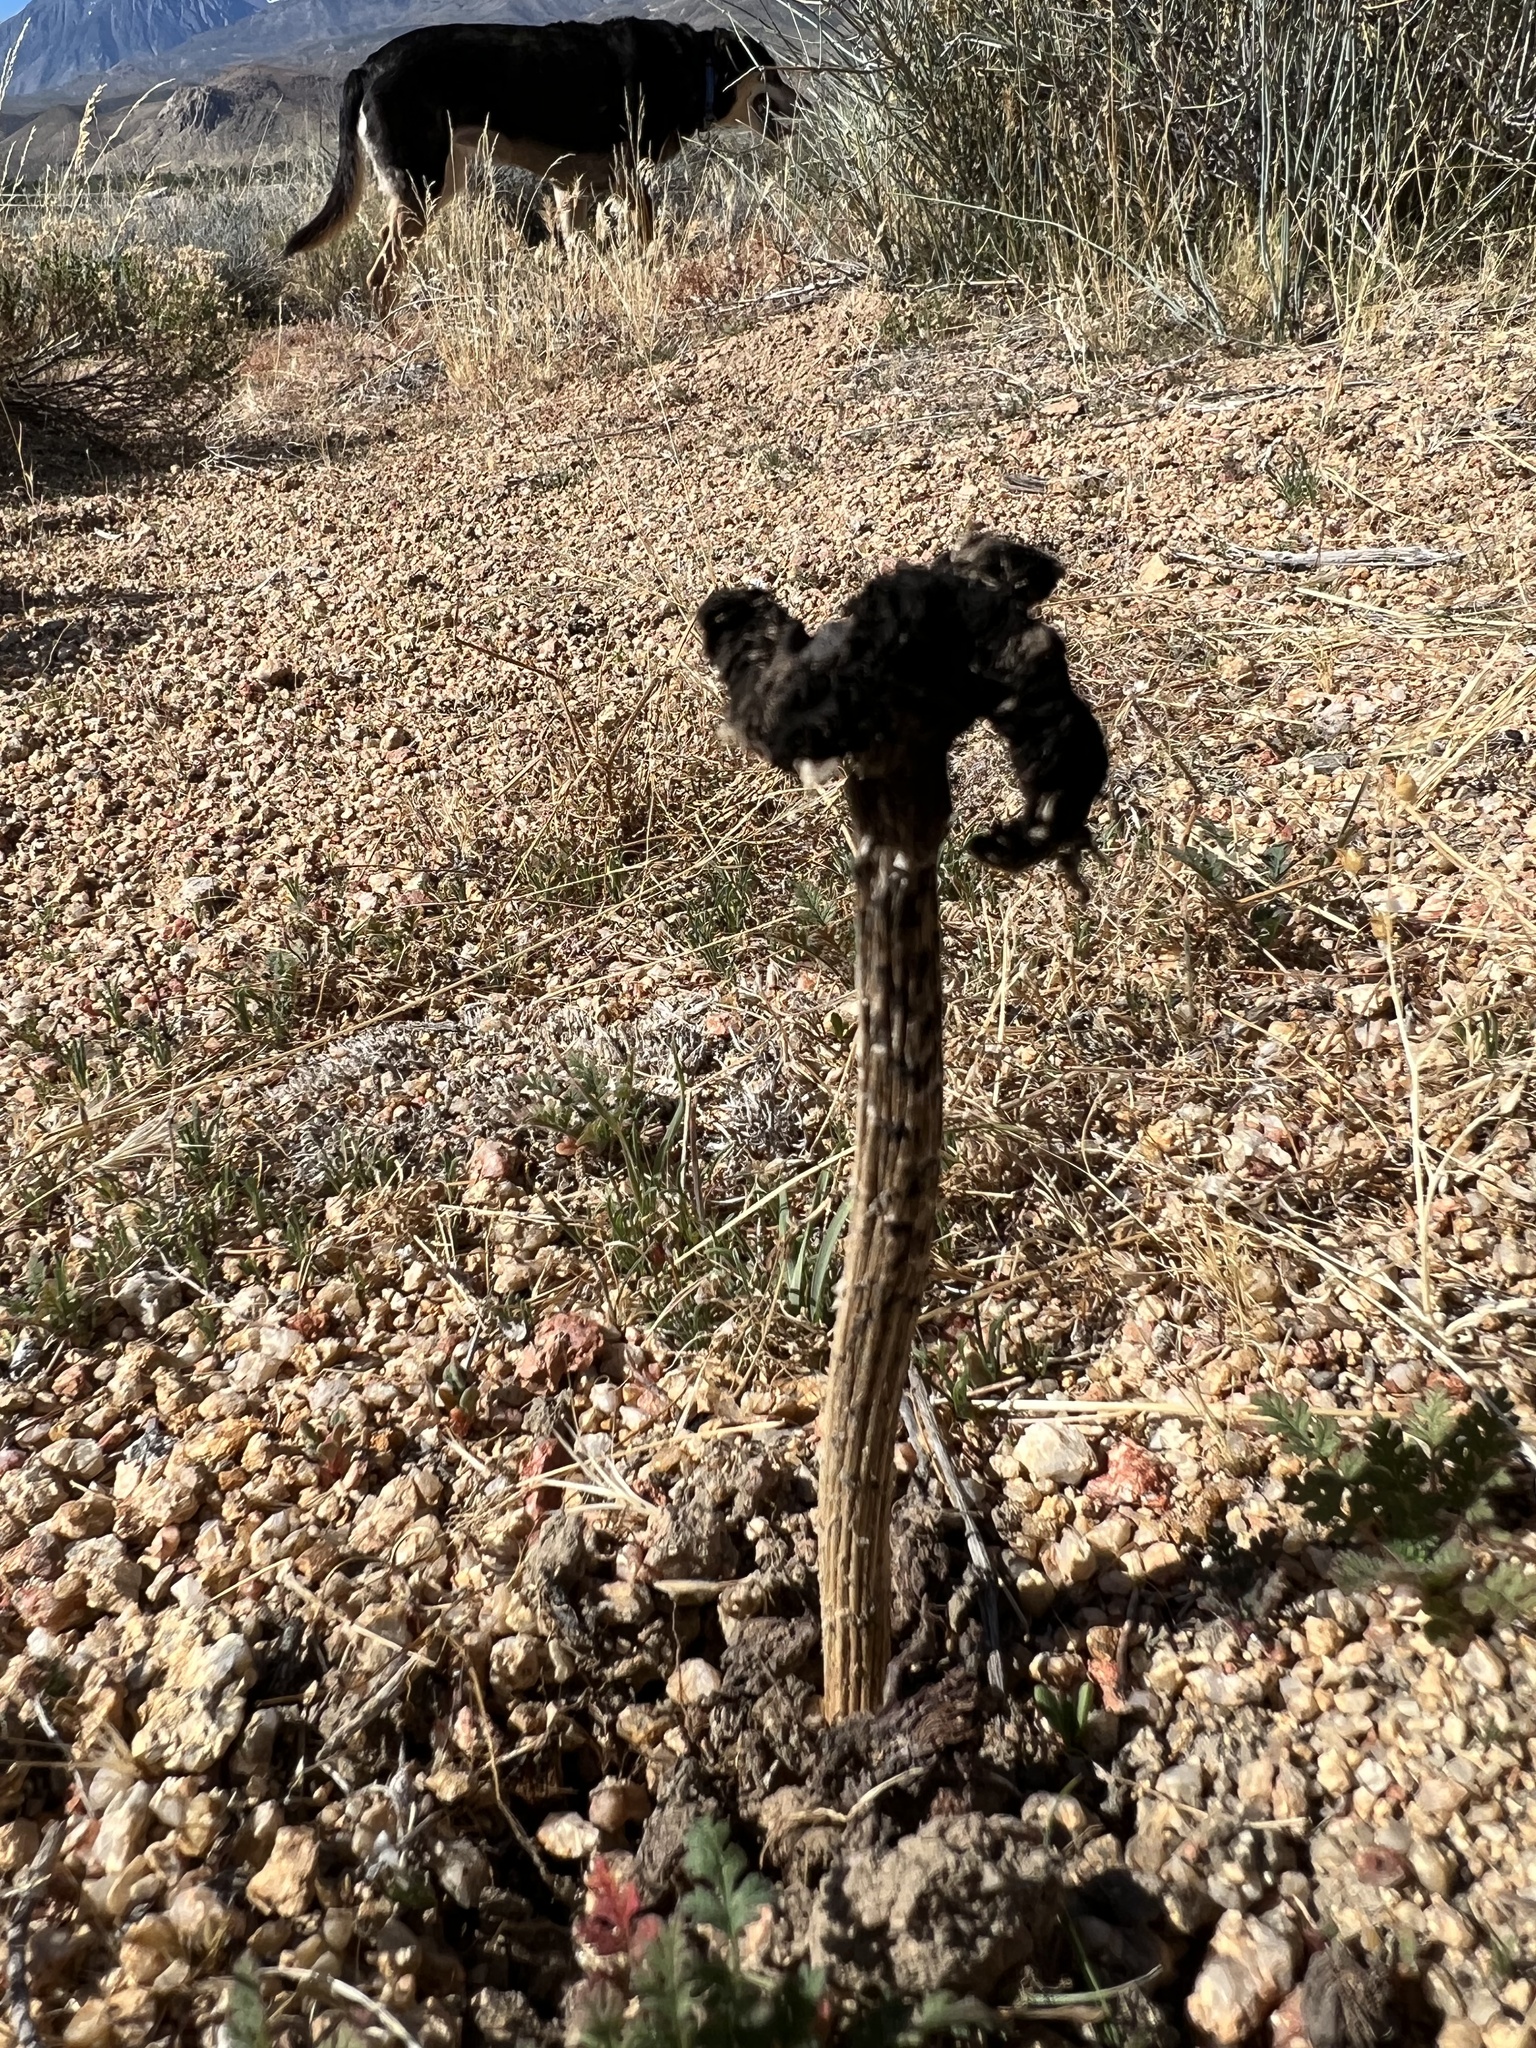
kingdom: Fungi
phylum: Basidiomycota
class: Agaricomycetes
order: Agaricales
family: Agaricaceae
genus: Montagnea
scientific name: Montagnea arenaria
